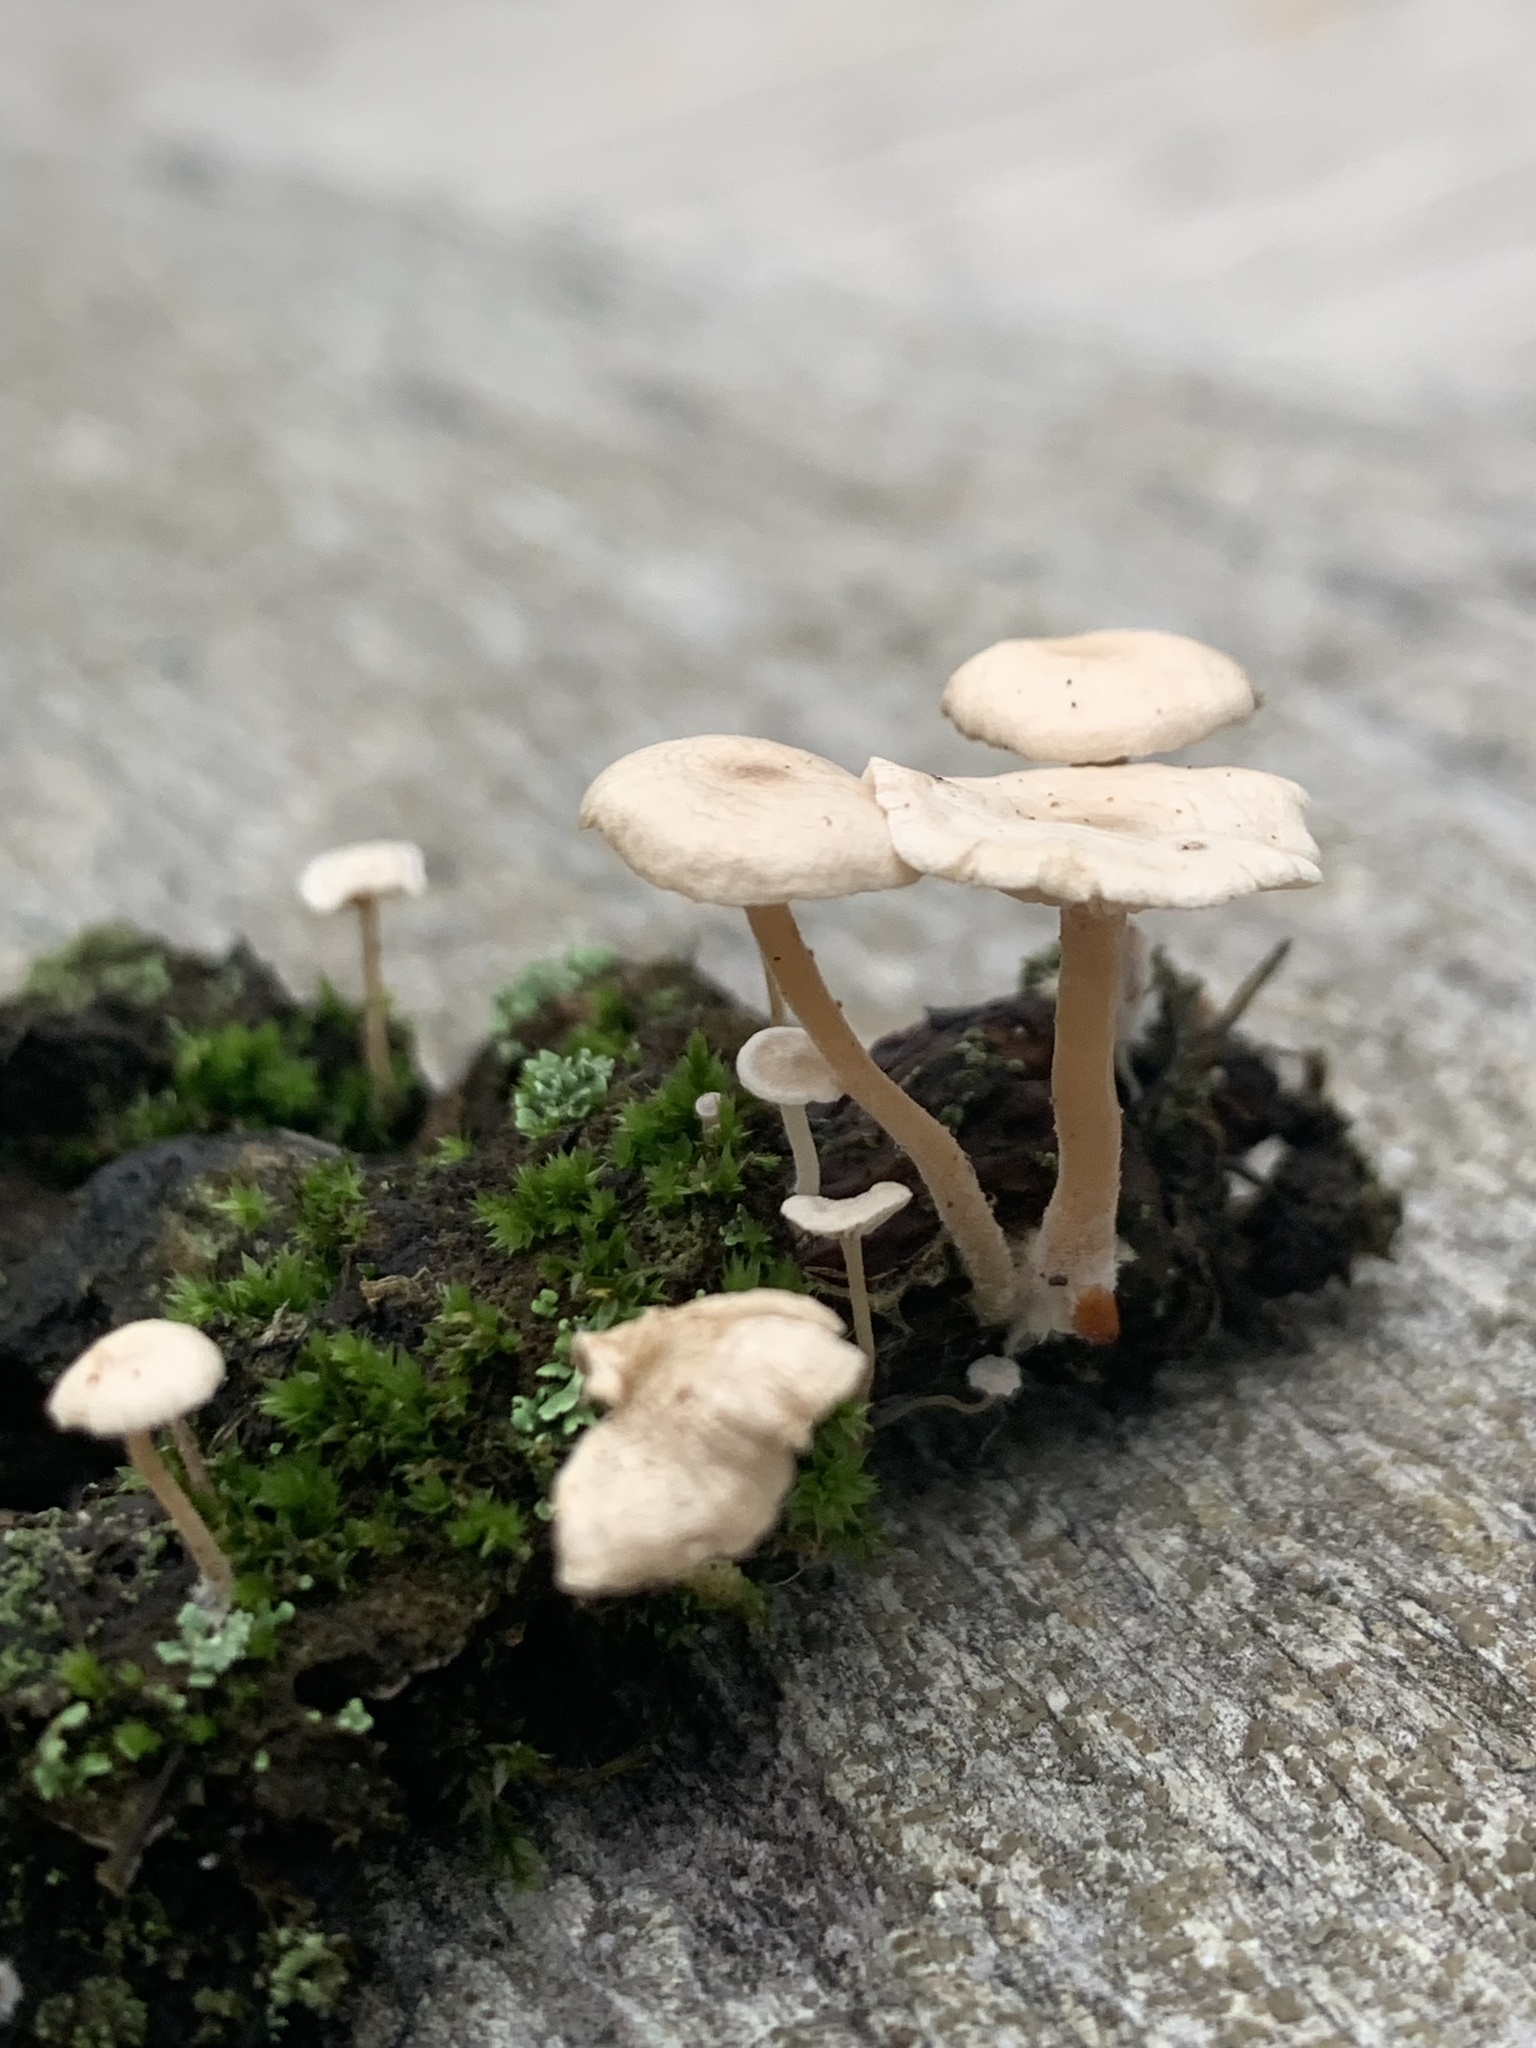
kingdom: Fungi
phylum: Basidiomycota
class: Agaricomycetes
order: Agaricales
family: Tricholomataceae
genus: Collybia
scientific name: Collybia tuberosa
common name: Lentil shanklet
